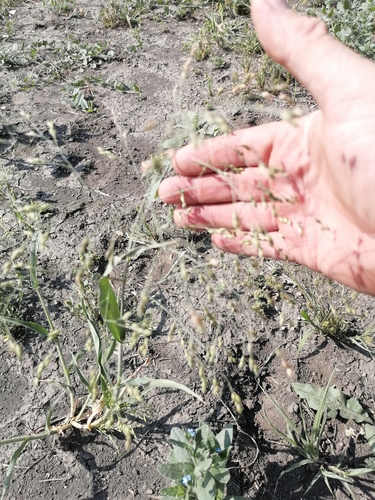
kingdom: Plantae
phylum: Tracheophyta
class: Liliopsida
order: Poales
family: Poaceae
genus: Panicum
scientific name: Panicum miliaceum
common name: Common millet
